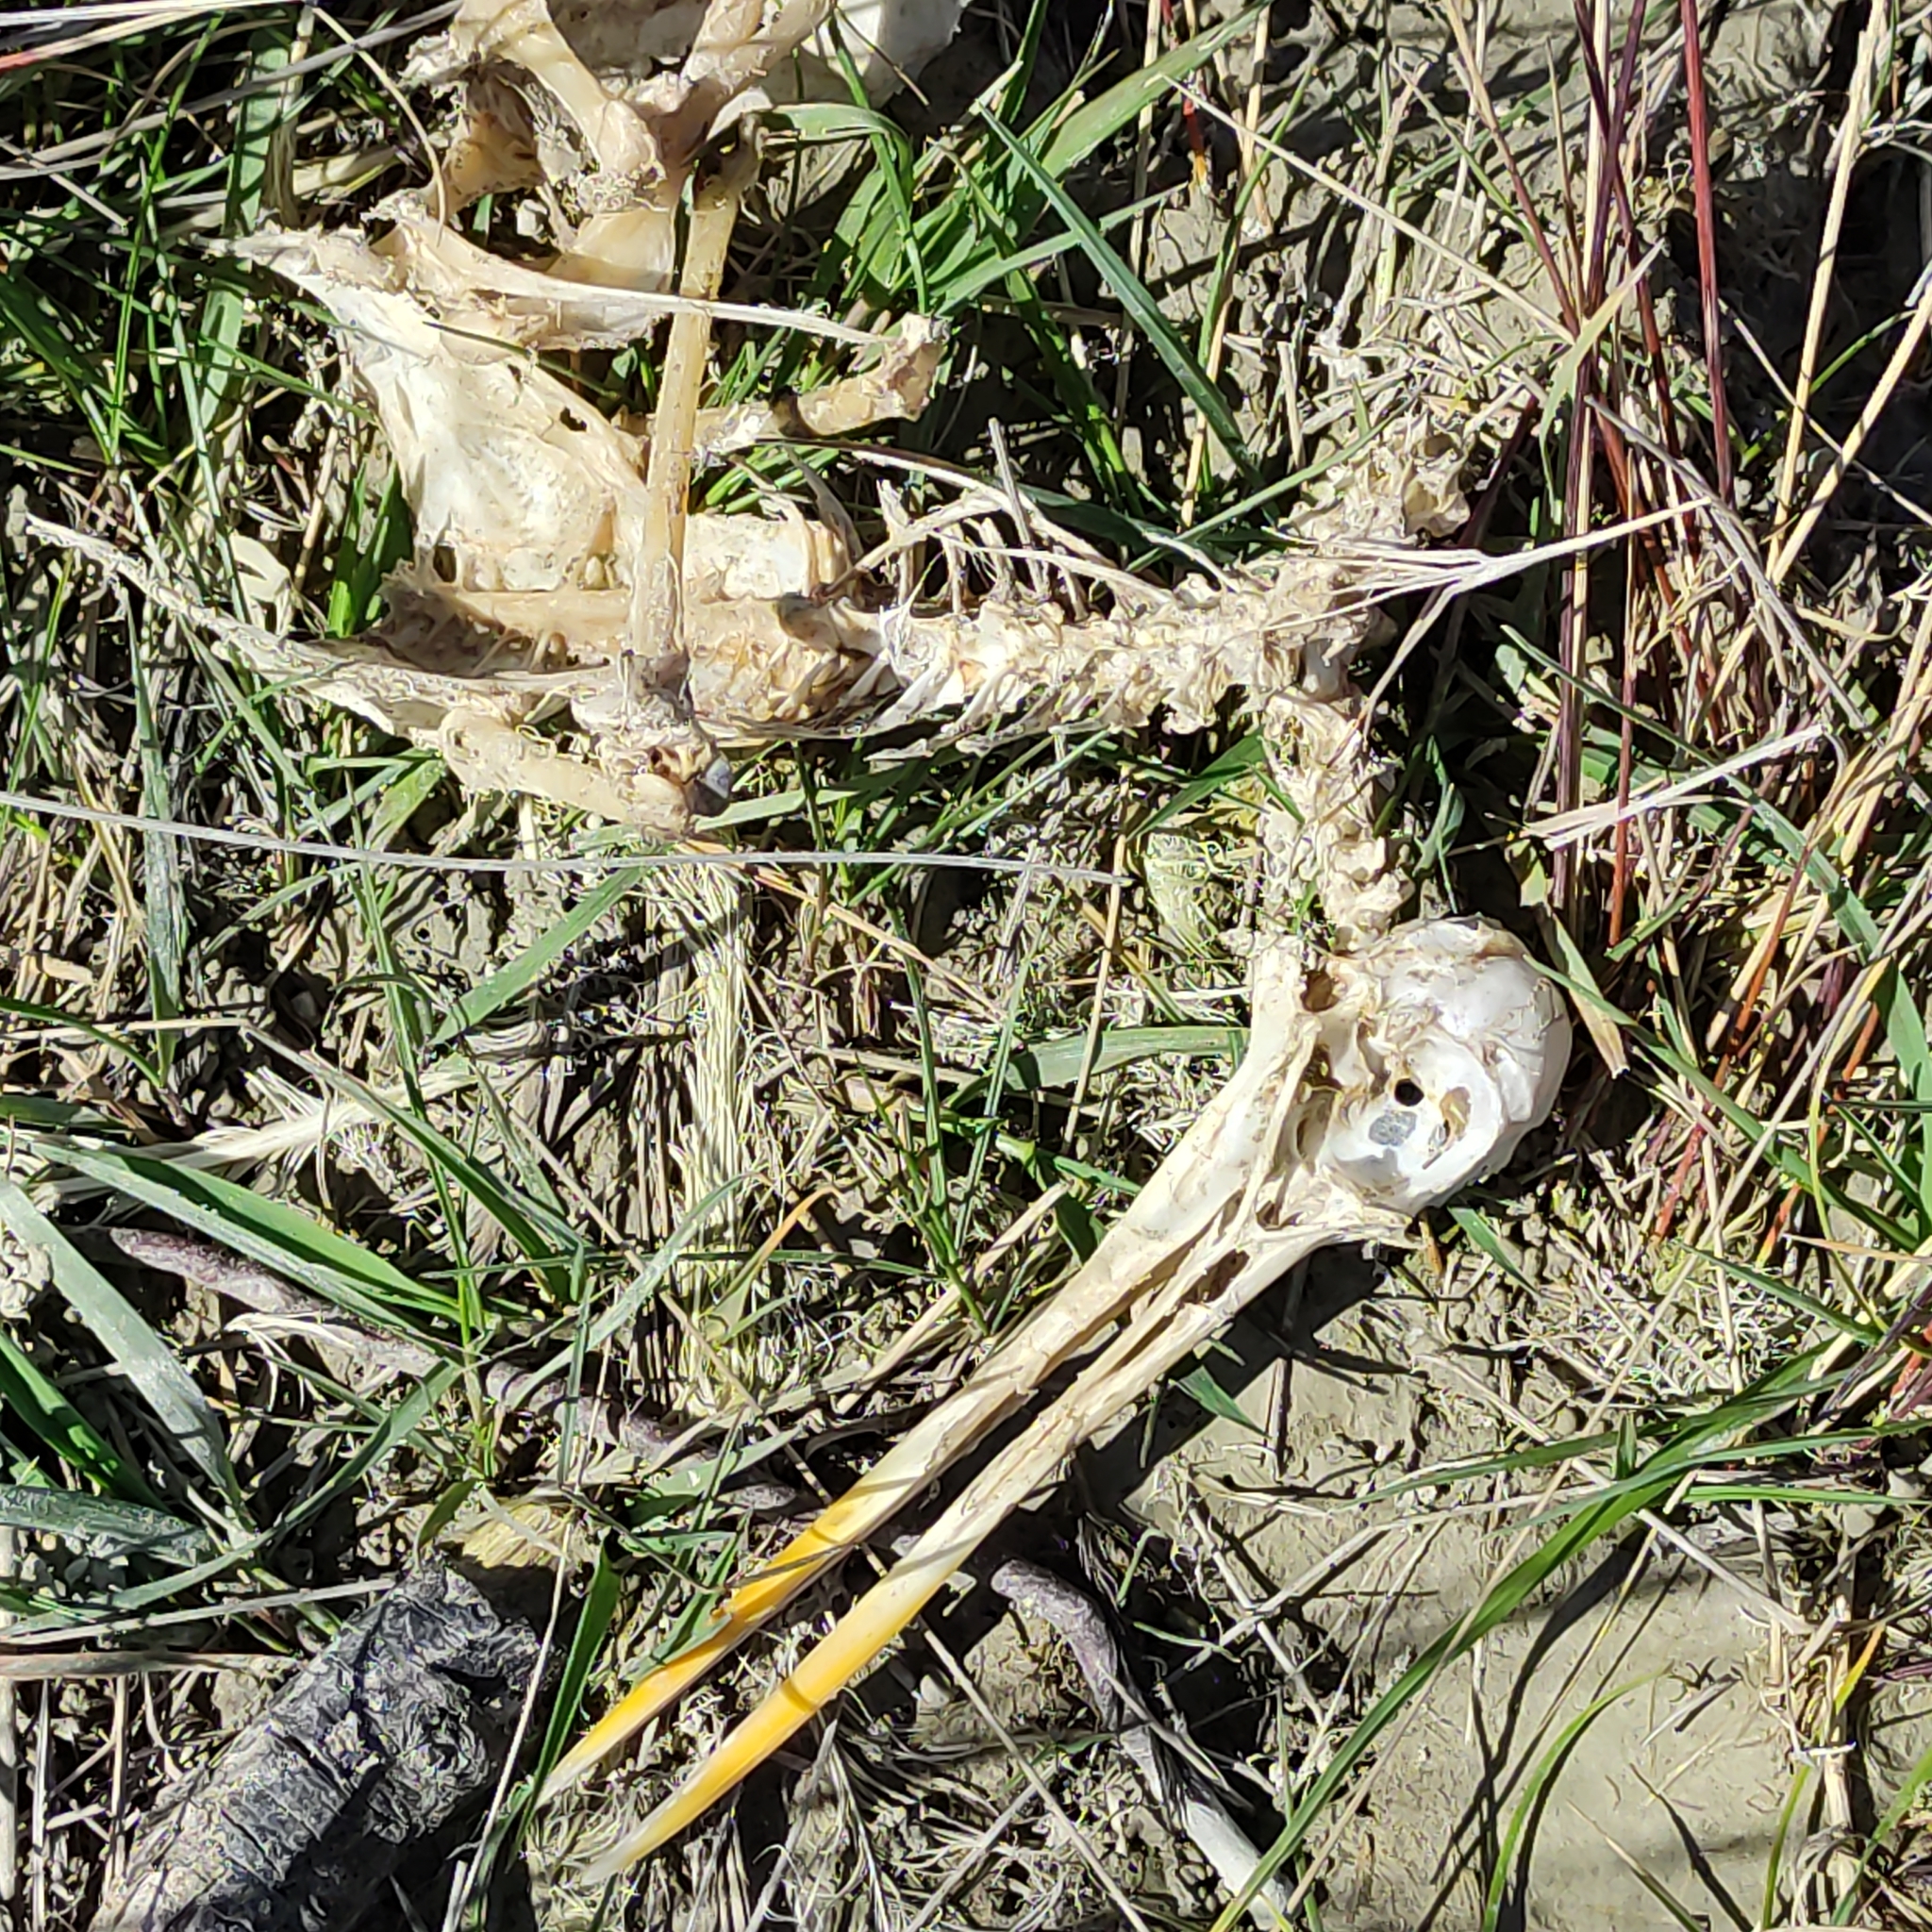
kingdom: Animalia
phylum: Chordata
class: Aves
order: Charadriiformes
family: Haematopodidae
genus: Haematopus
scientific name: Haematopus finschi
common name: South island oystercatcher
